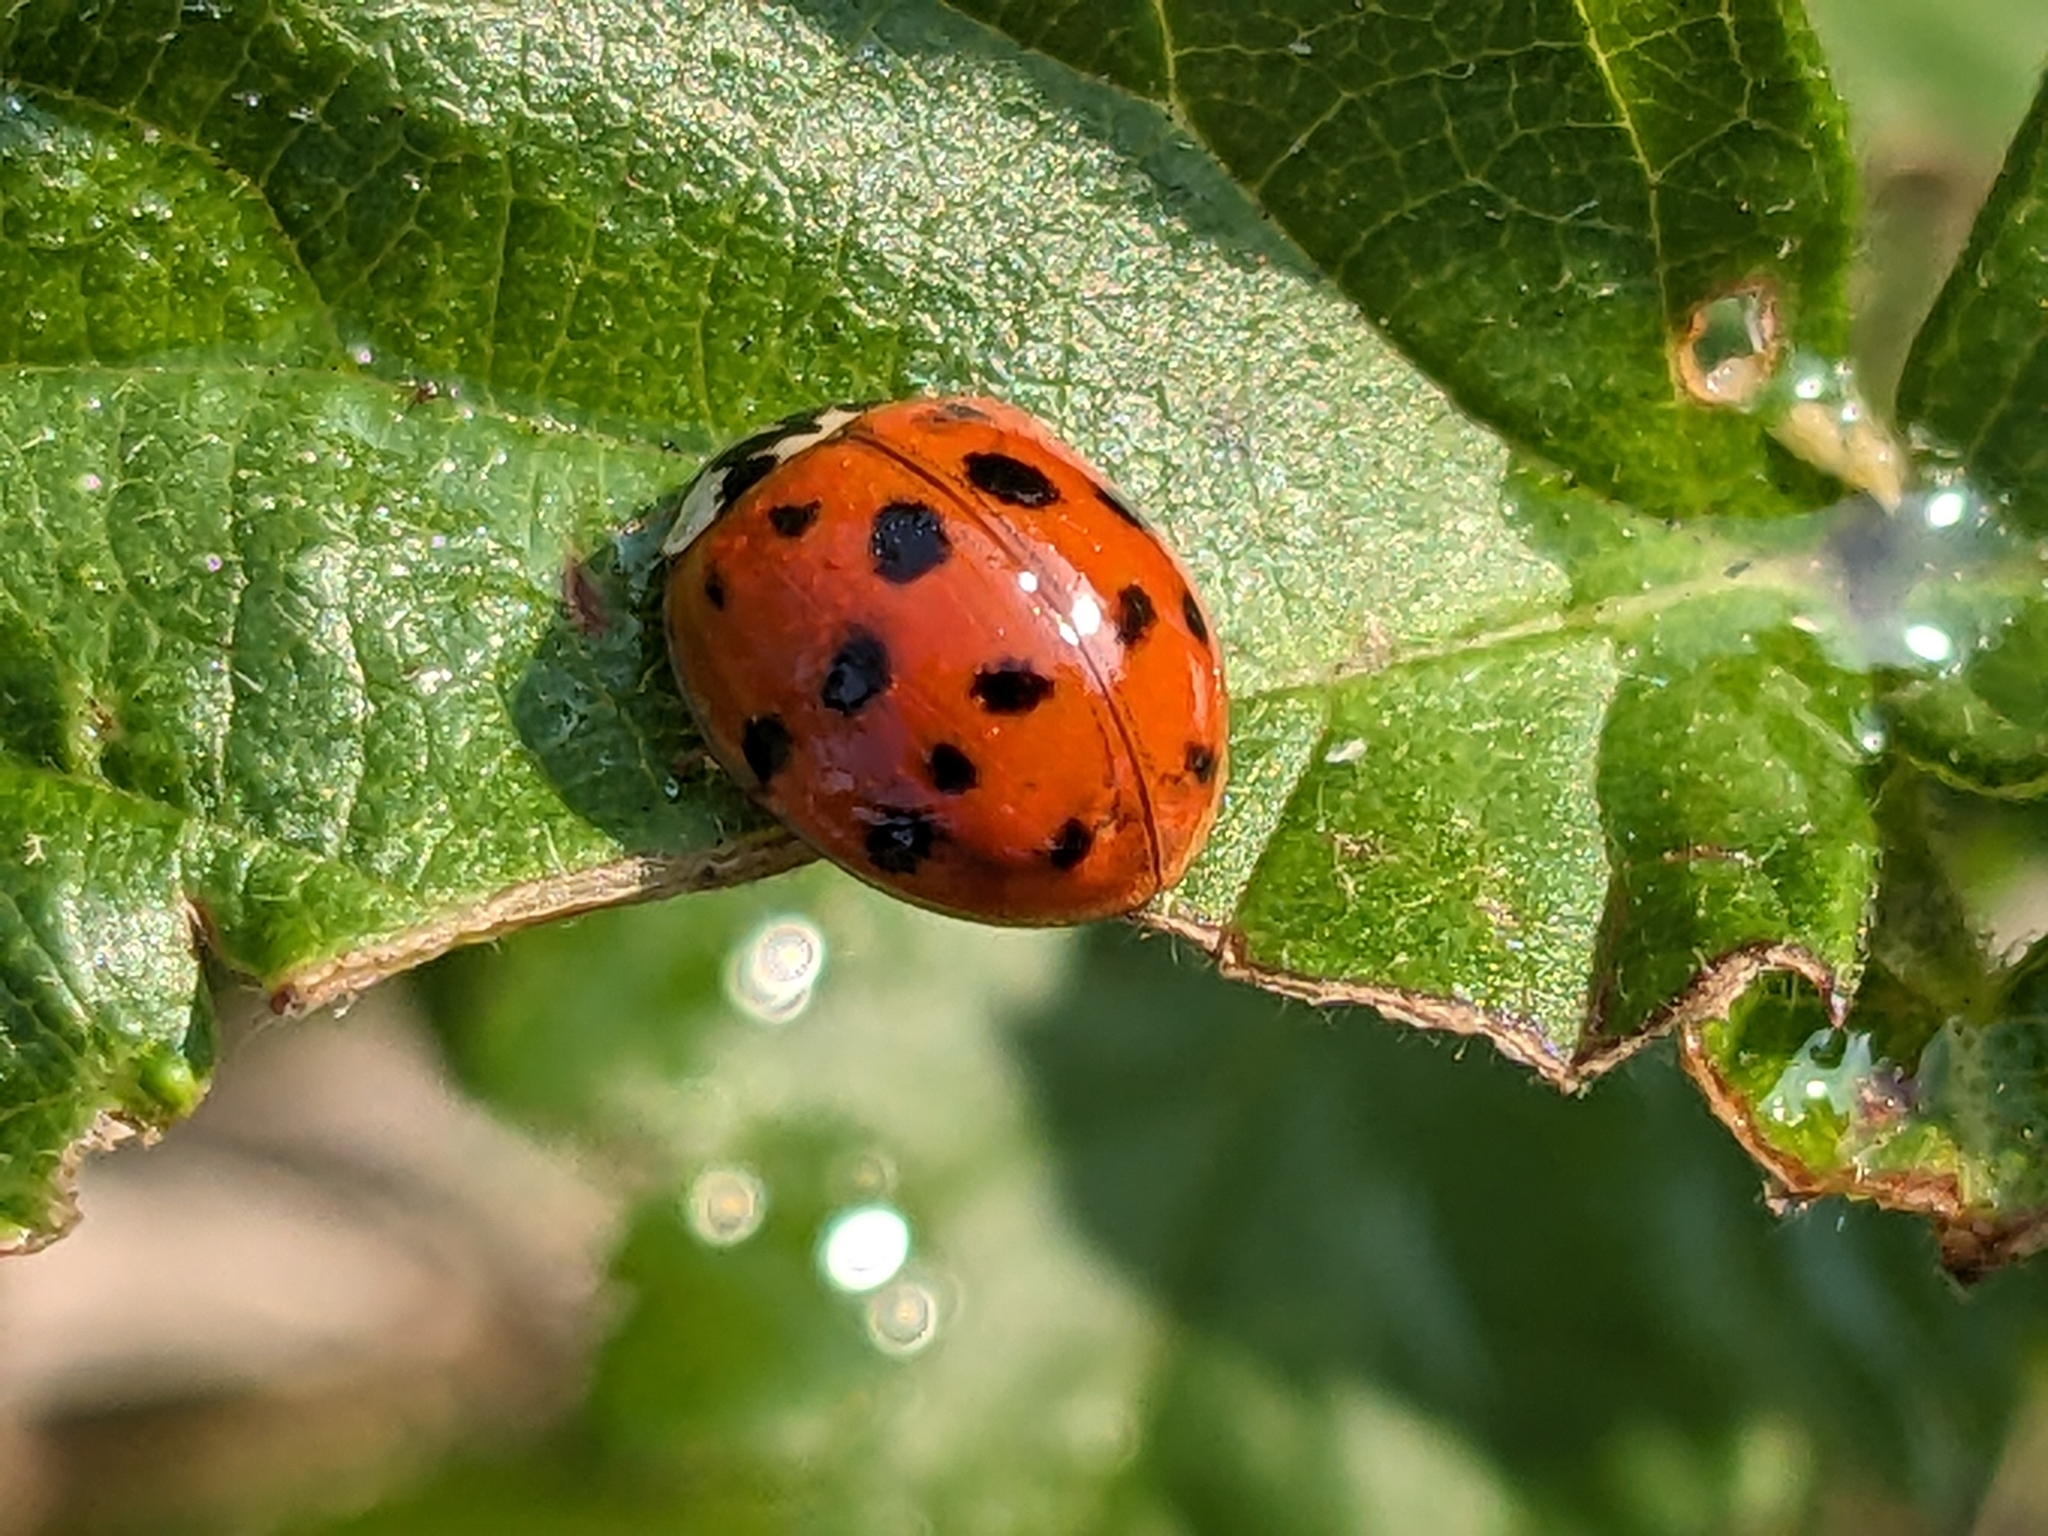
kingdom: Animalia
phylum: Arthropoda
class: Insecta
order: Coleoptera
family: Coccinellidae
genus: Harmonia
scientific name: Harmonia axyridis
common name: Harlequin ladybird
